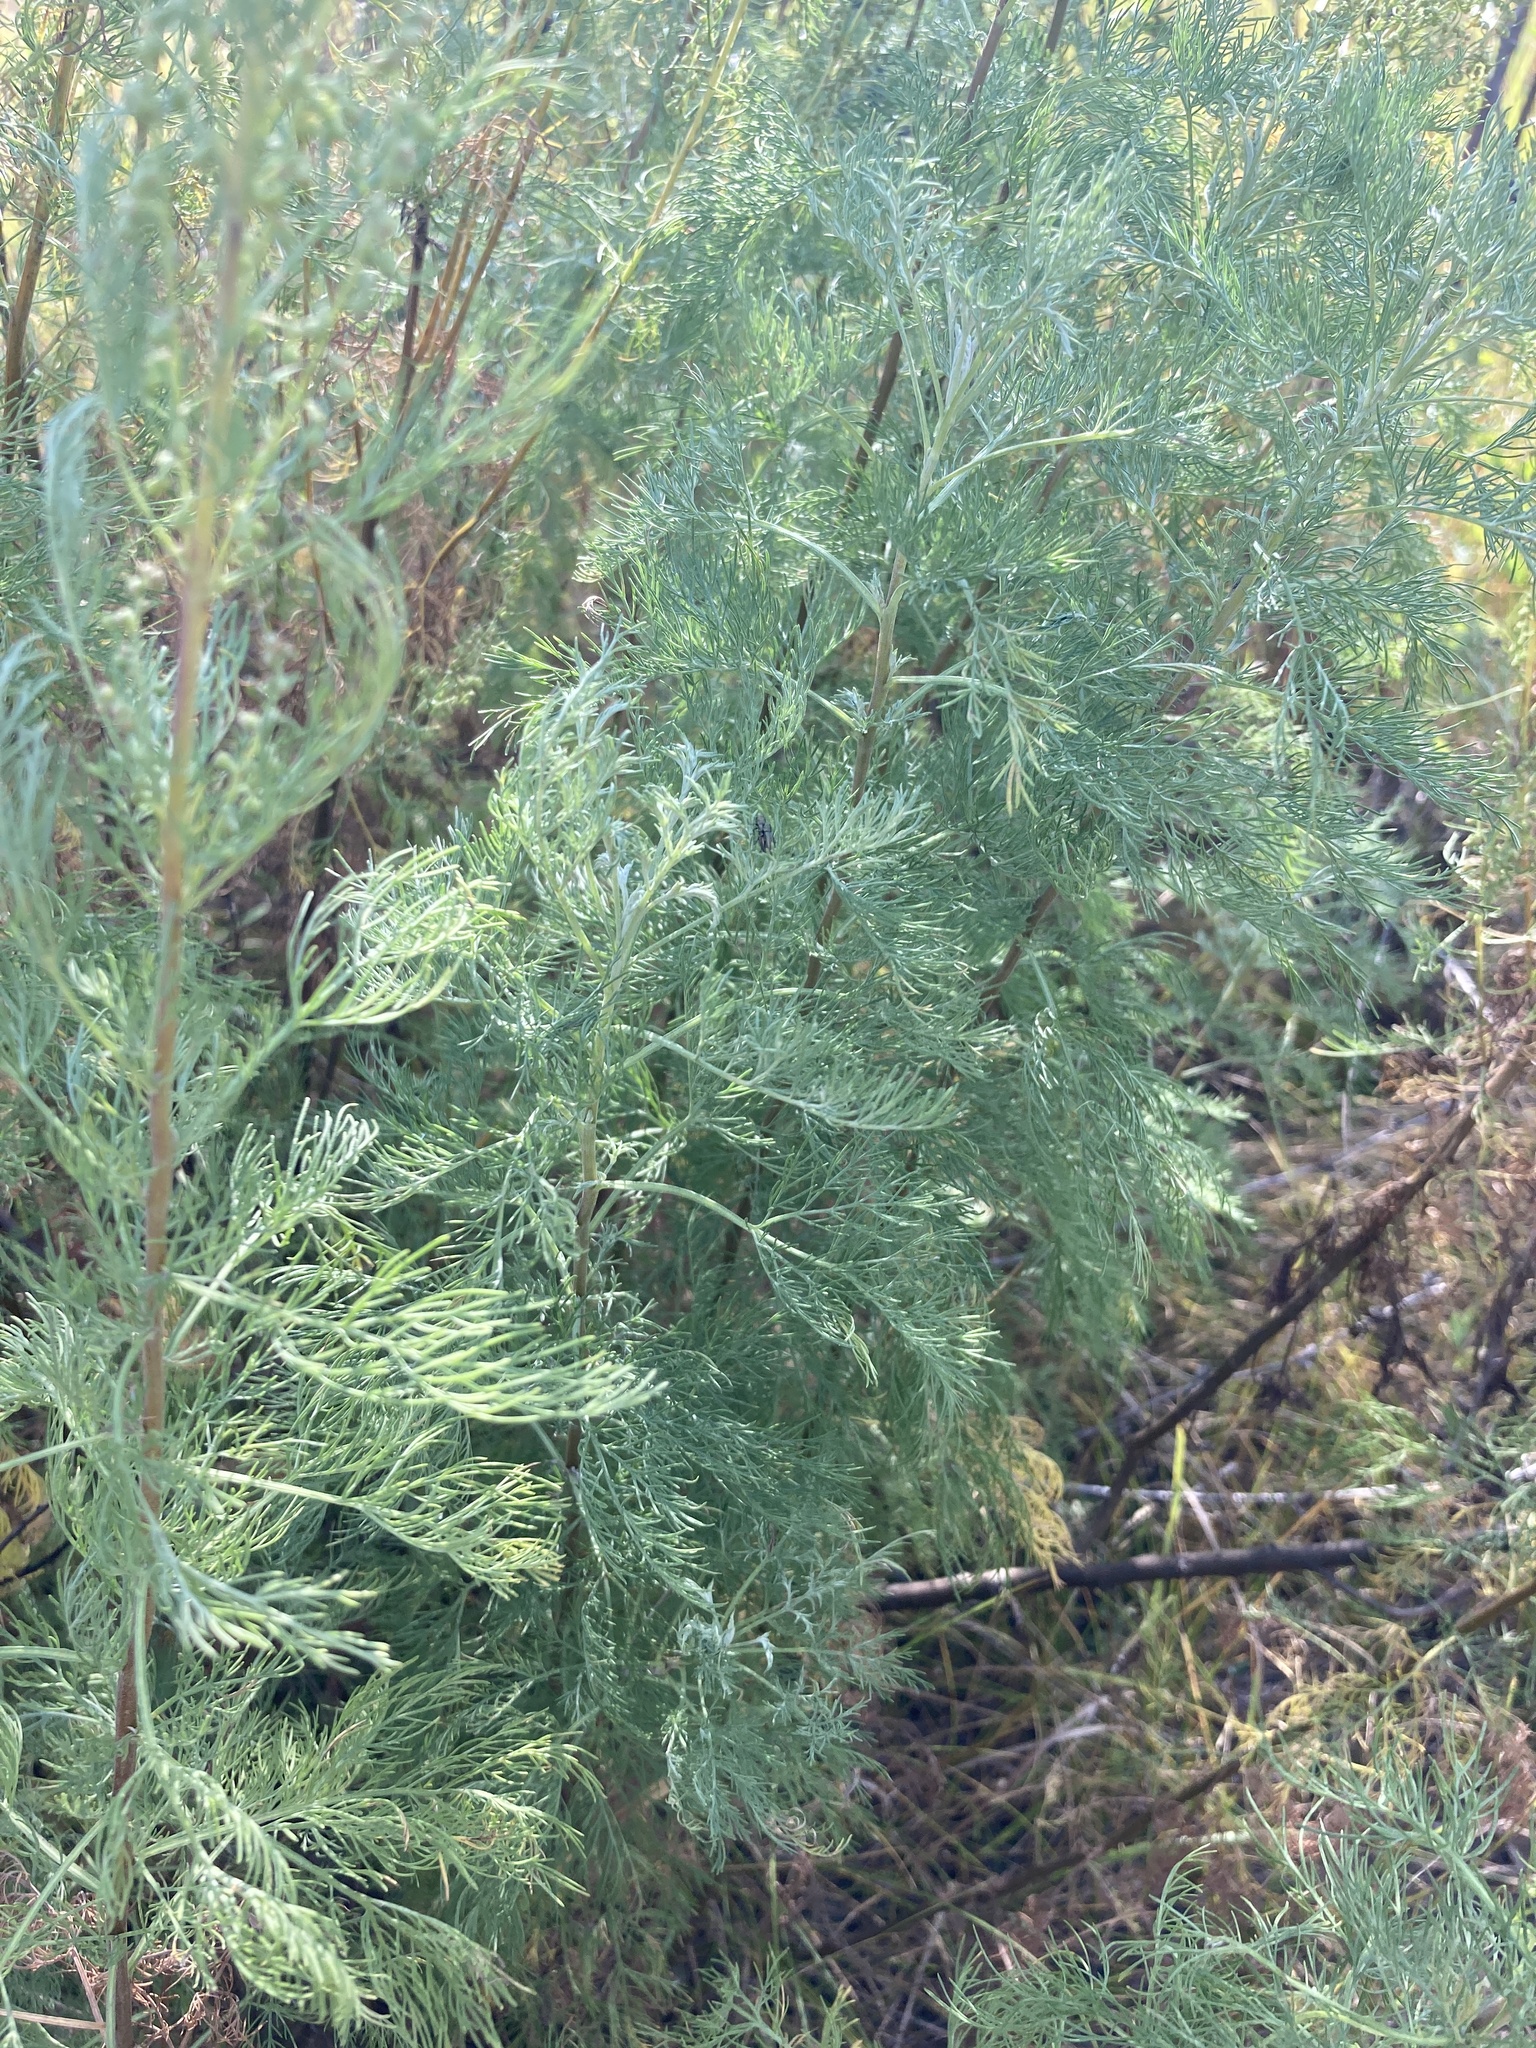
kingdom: Plantae
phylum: Tracheophyta
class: Magnoliopsida
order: Asterales
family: Asteraceae
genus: Artemisia
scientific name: Artemisia abrotanum
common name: Southernwood
